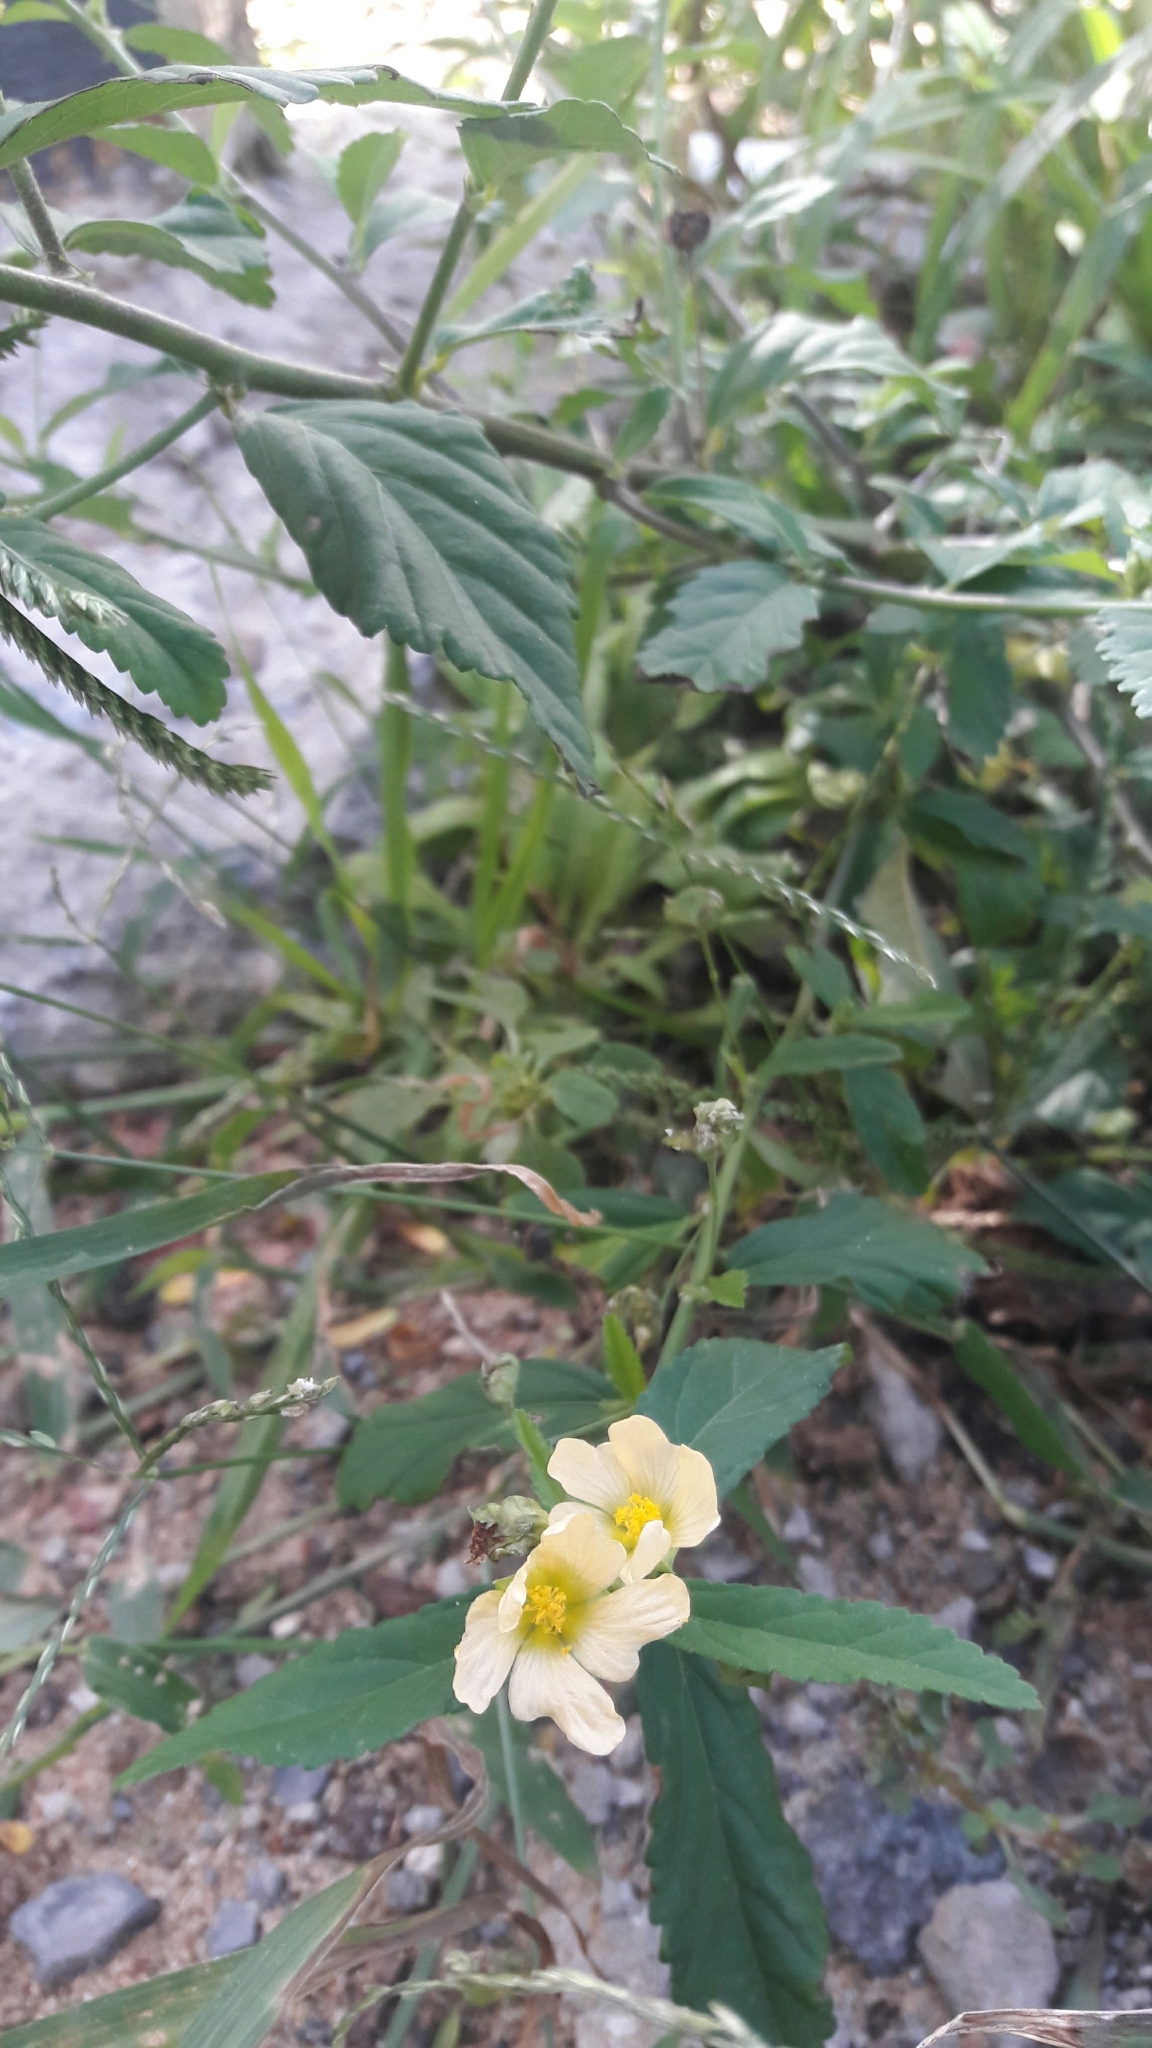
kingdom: Plantae
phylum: Tracheophyta
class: Magnoliopsida
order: Malvales
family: Malvaceae
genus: Sida
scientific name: Sida rhombifolia
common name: Queensland-hemp
